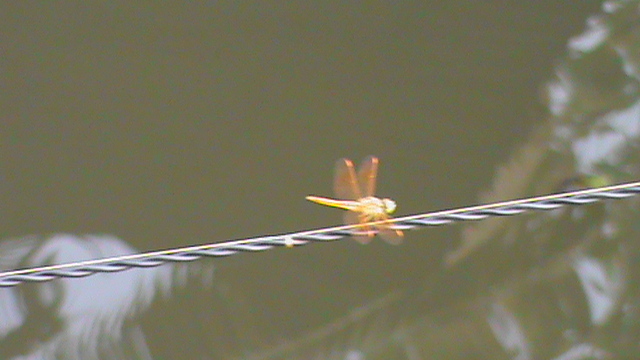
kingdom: Animalia
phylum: Arthropoda
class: Insecta
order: Odonata
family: Libellulidae
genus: Brachythemis
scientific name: Brachythemis contaminata
